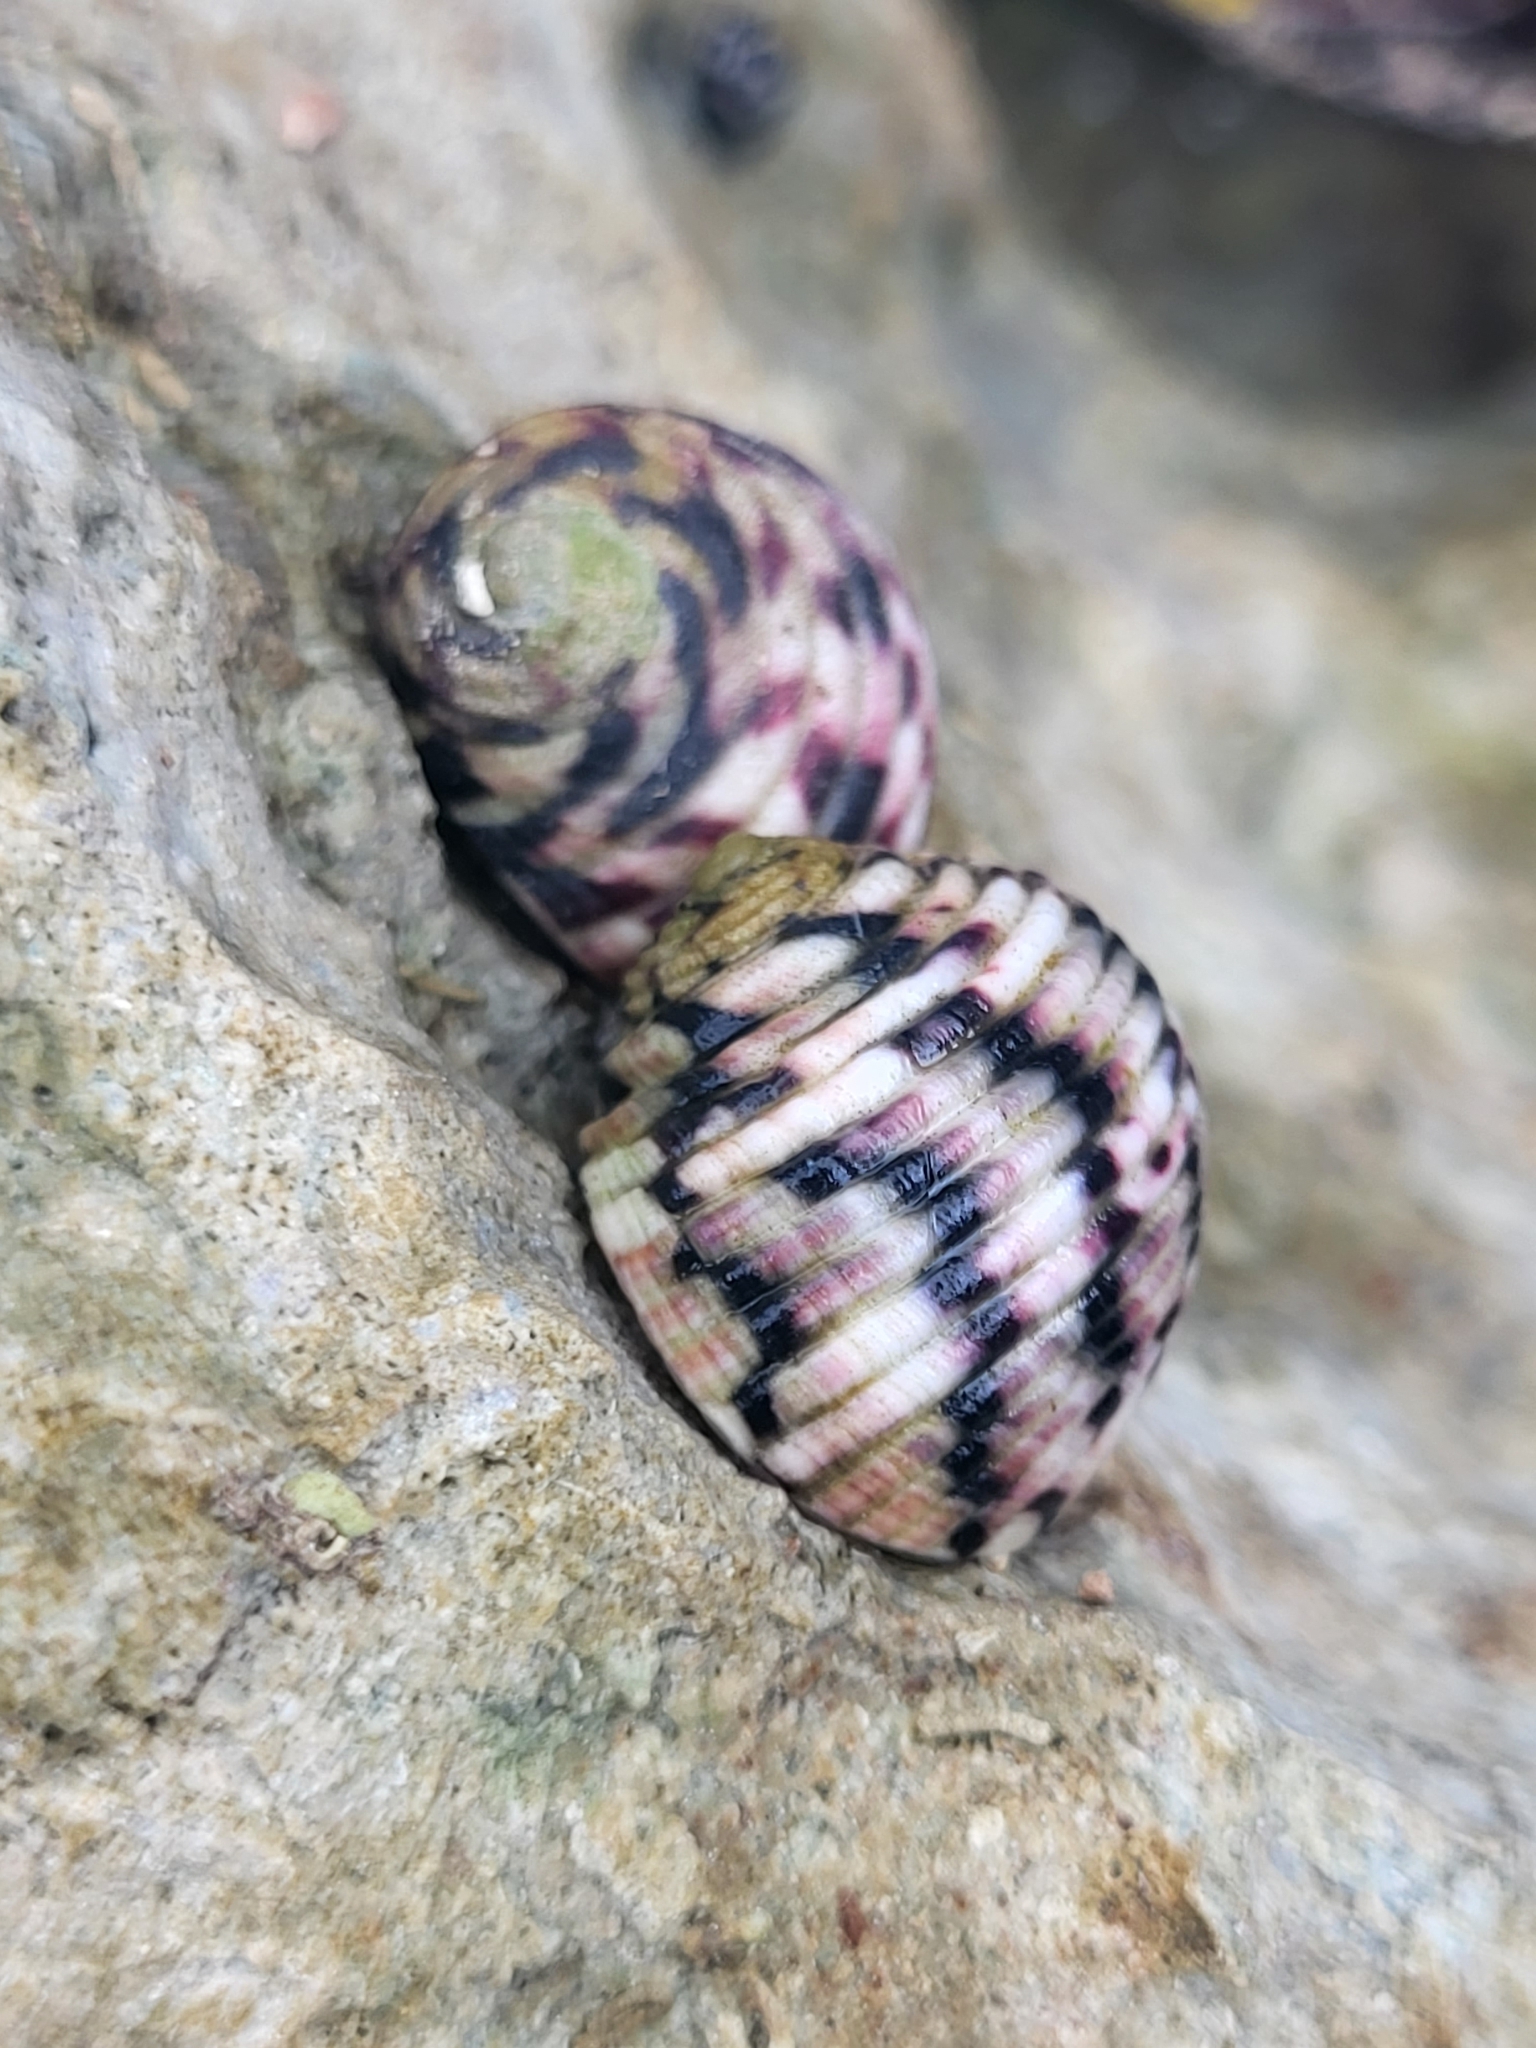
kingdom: Animalia
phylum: Mollusca
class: Gastropoda
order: Cycloneritida
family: Neritidae
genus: Nerita
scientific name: Nerita versicolor
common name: Four-tooth nerite
